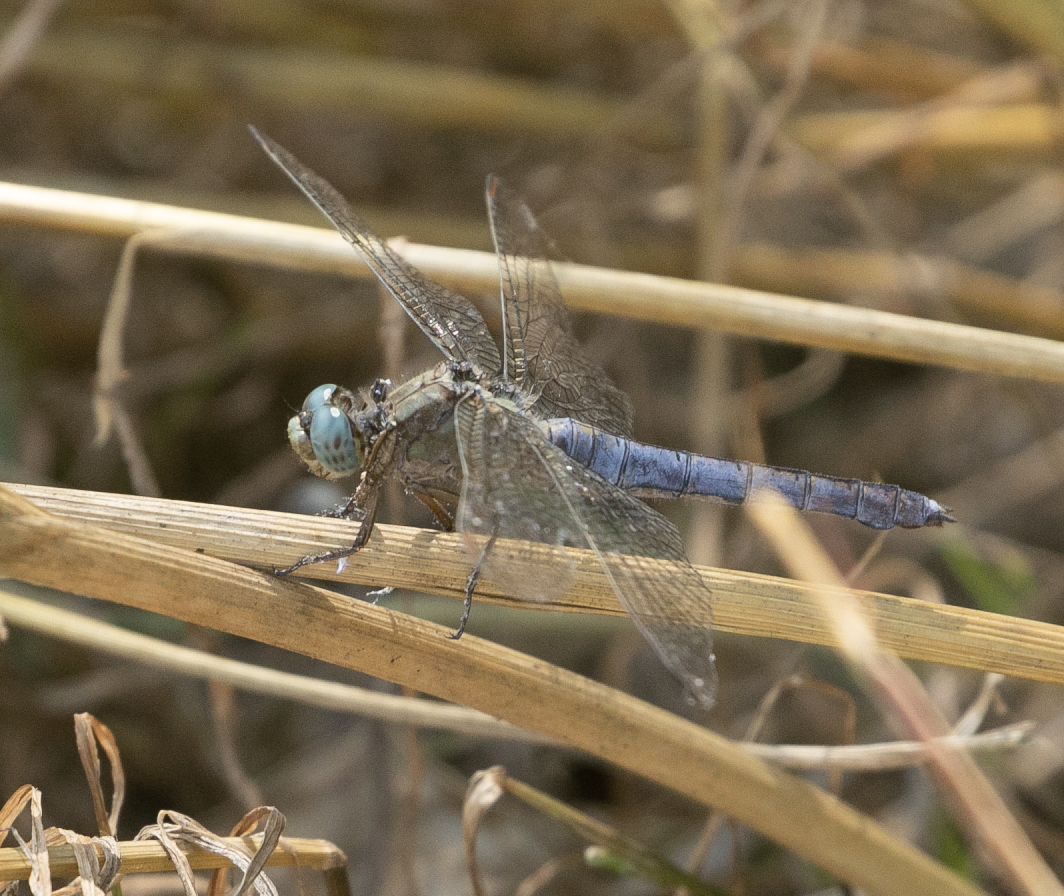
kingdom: Animalia
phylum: Arthropoda
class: Insecta
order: Odonata
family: Libellulidae
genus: Orthetrum
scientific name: Orthetrum coerulescens
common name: Keeled skimmer
